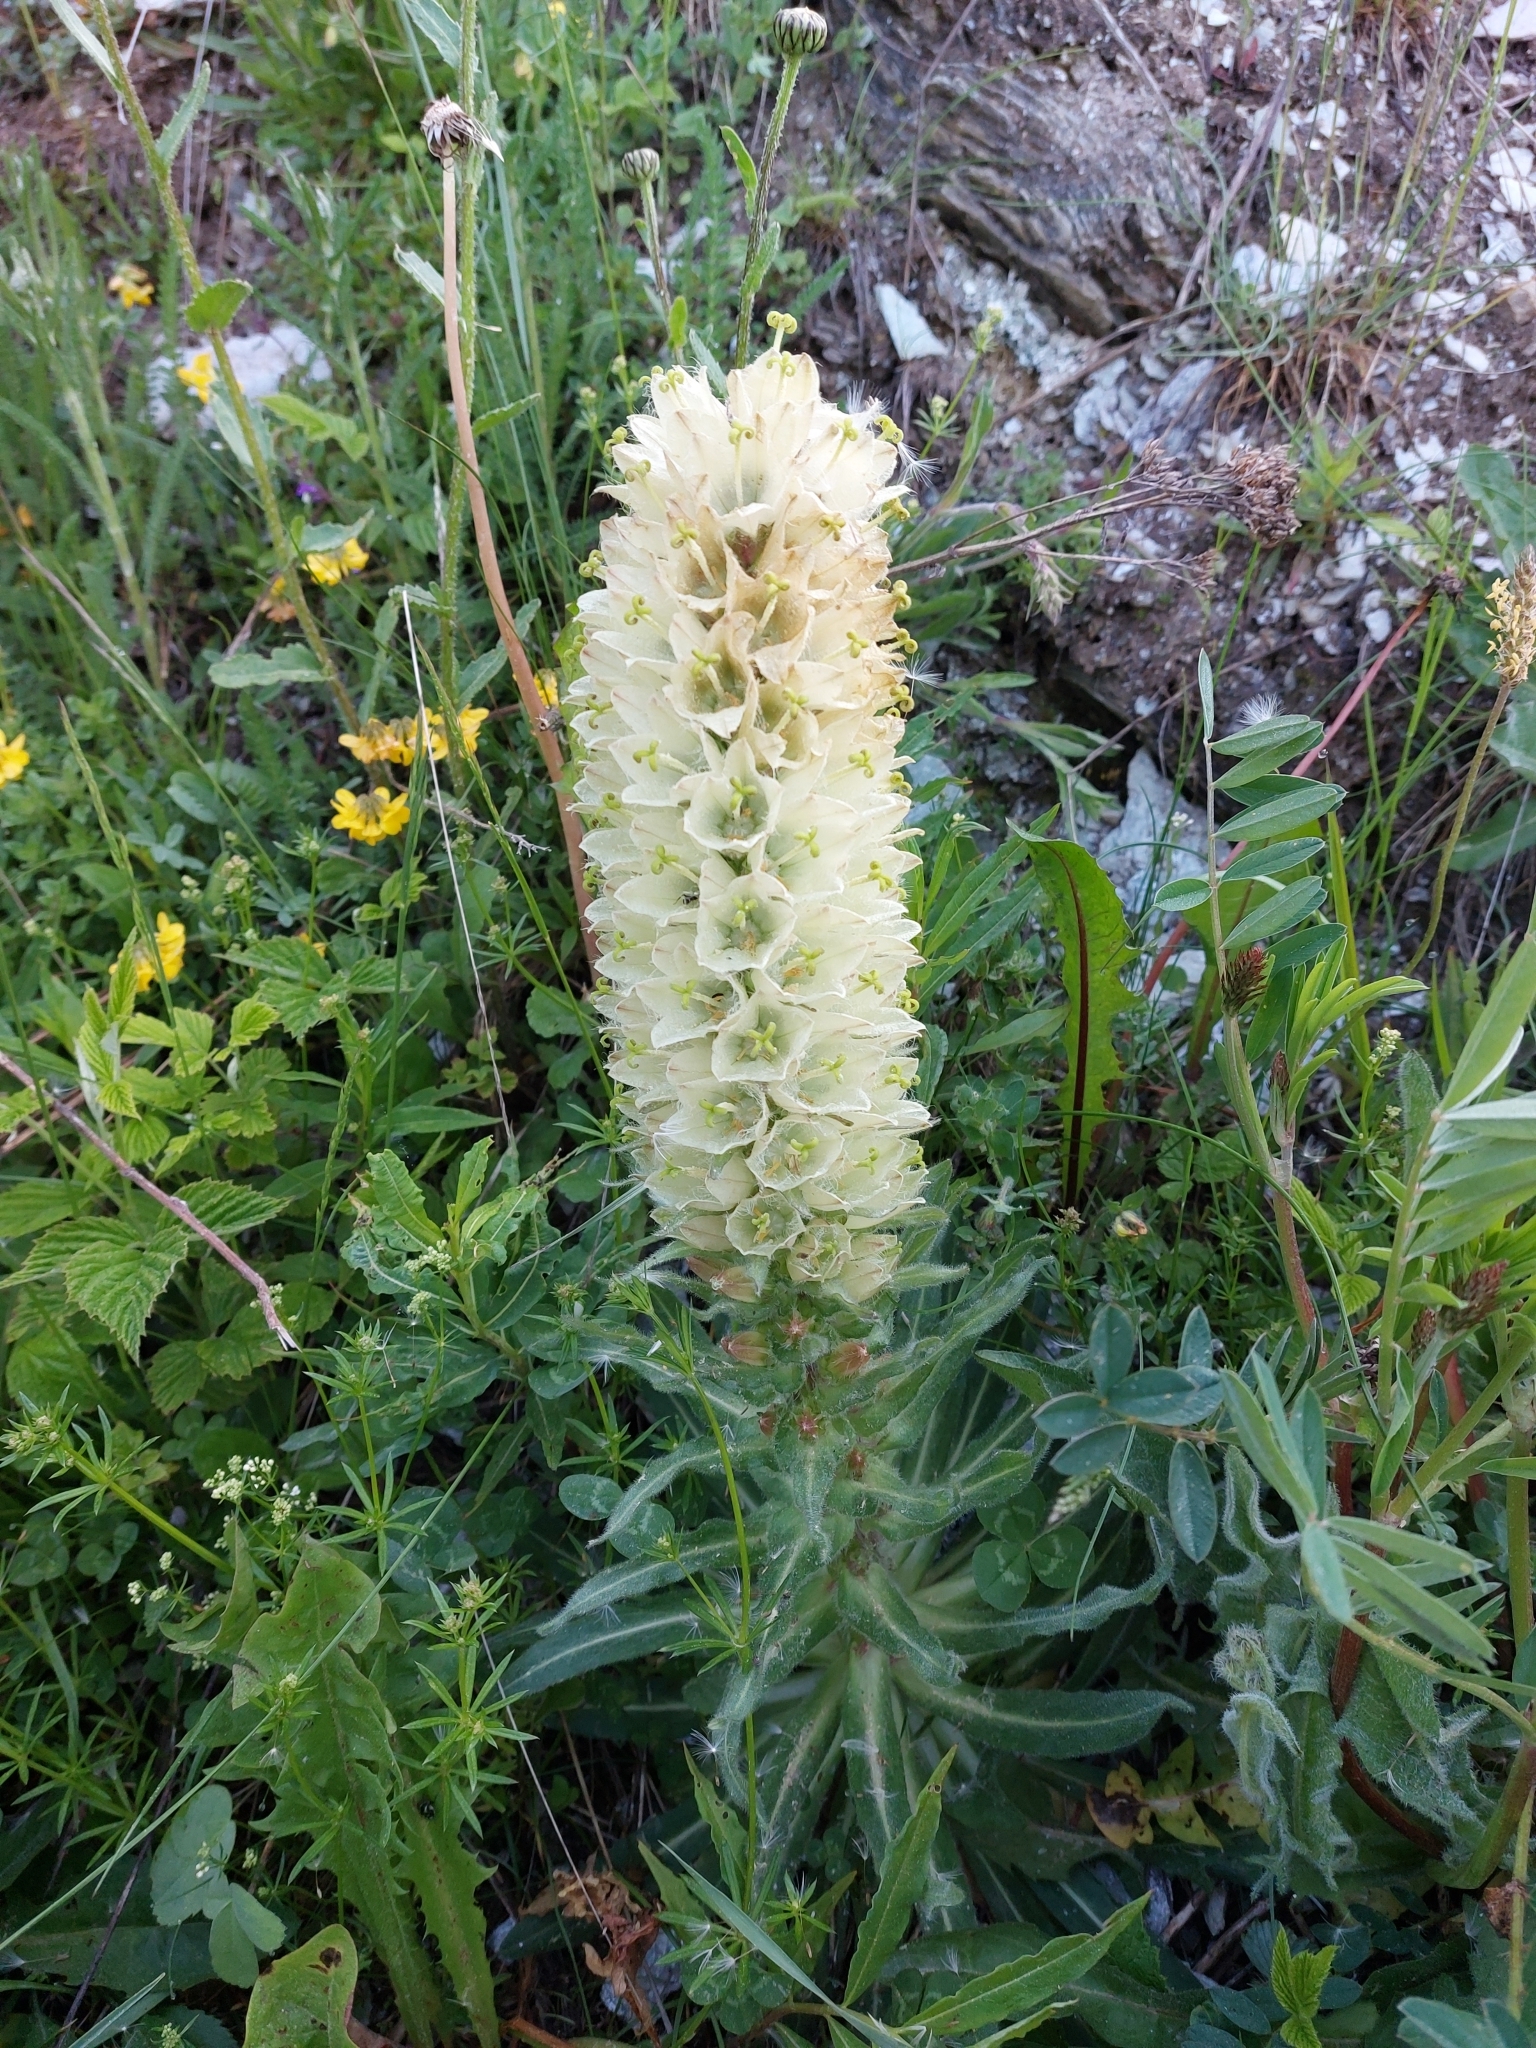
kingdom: Plantae
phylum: Tracheophyta
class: Magnoliopsida
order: Asterales
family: Campanulaceae
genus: Campanula
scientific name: Campanula thyrsoides
